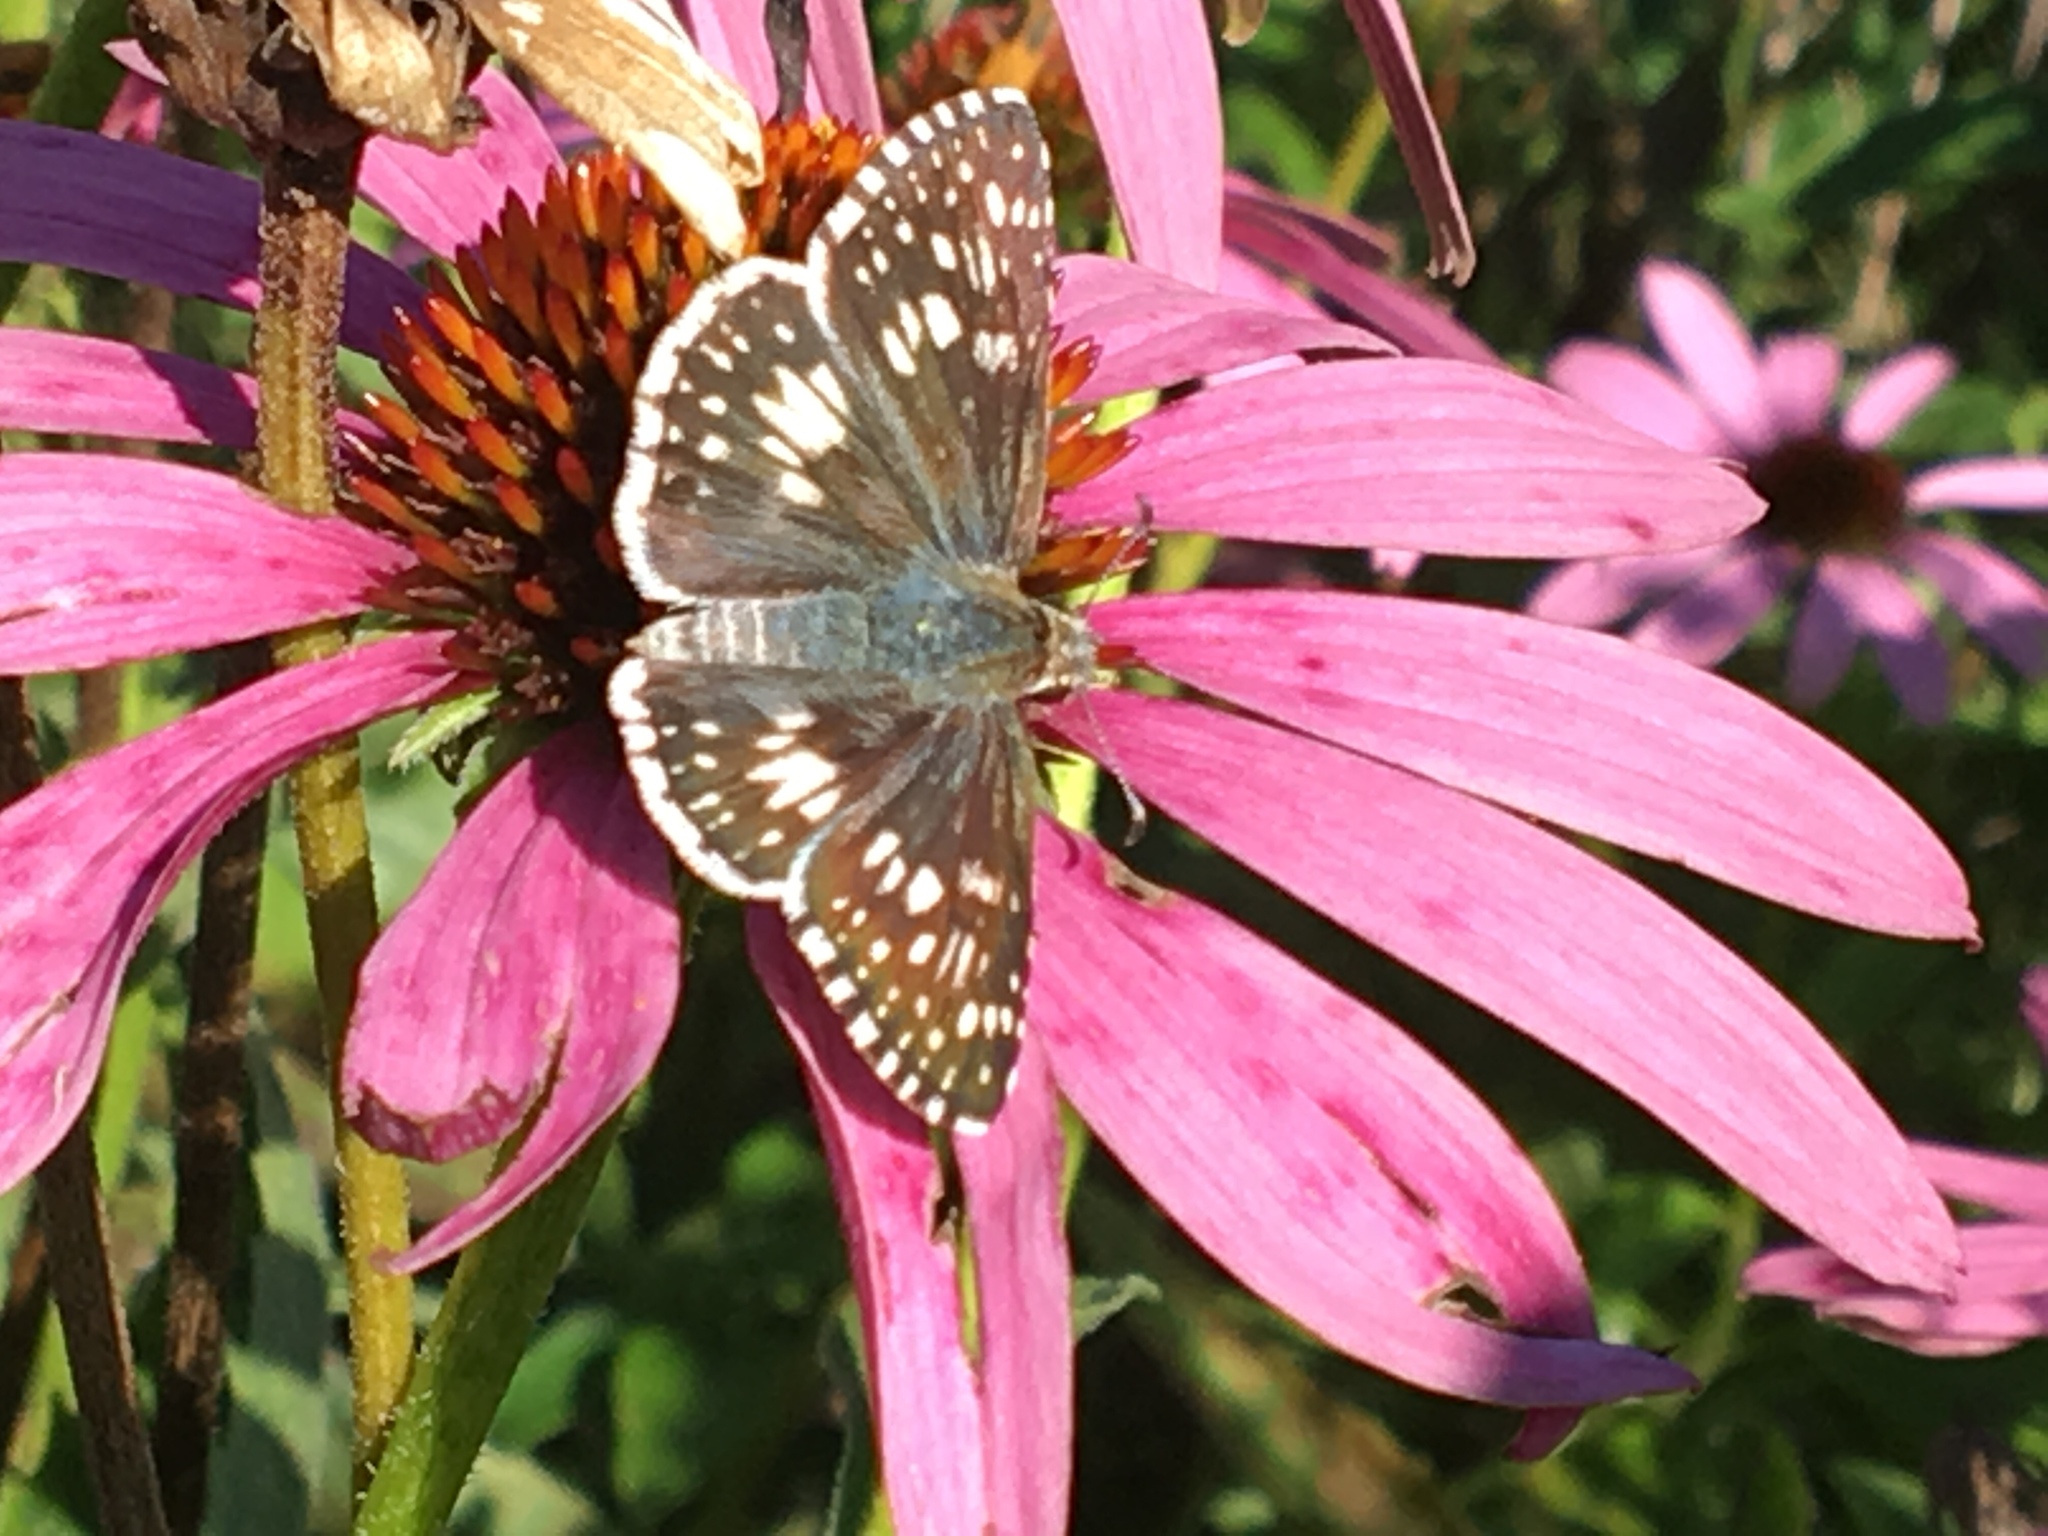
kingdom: Animalia
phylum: Arthropoda
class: Insecta
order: Lepidoptera
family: Hesperiidae
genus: Burnsius
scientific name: Burnsius communis
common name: Common checkered-skipper
